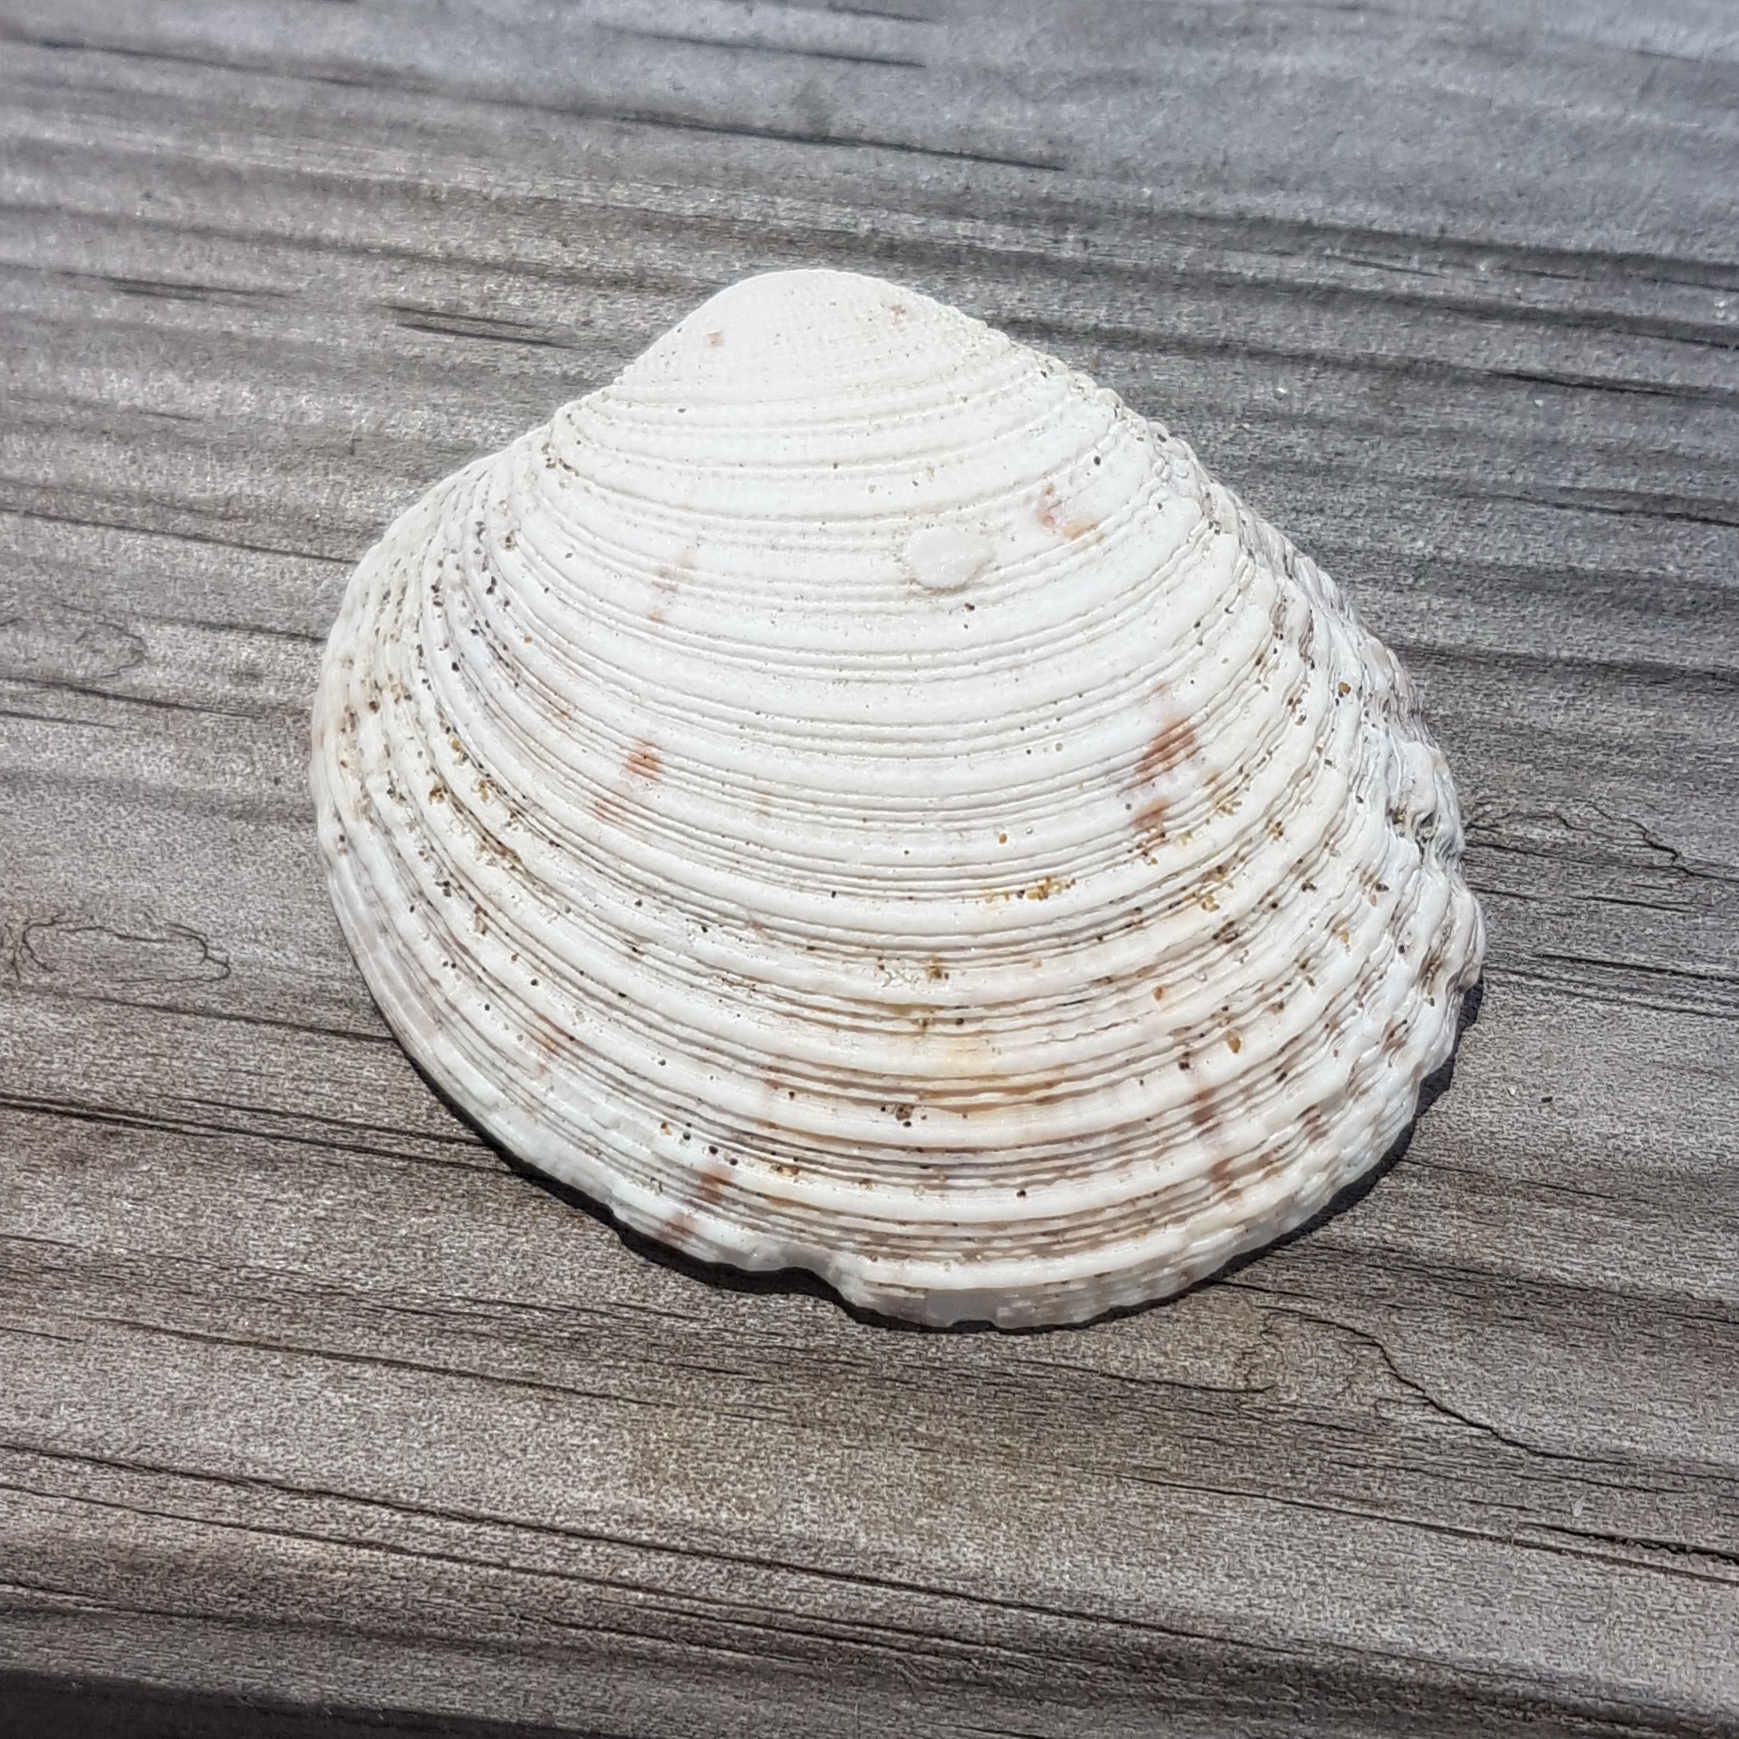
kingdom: Animalia
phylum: Mollusca
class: Bivalvia
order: Venerida
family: Veneridae
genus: Venus
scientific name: Venus verrucosa
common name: Warty venus
